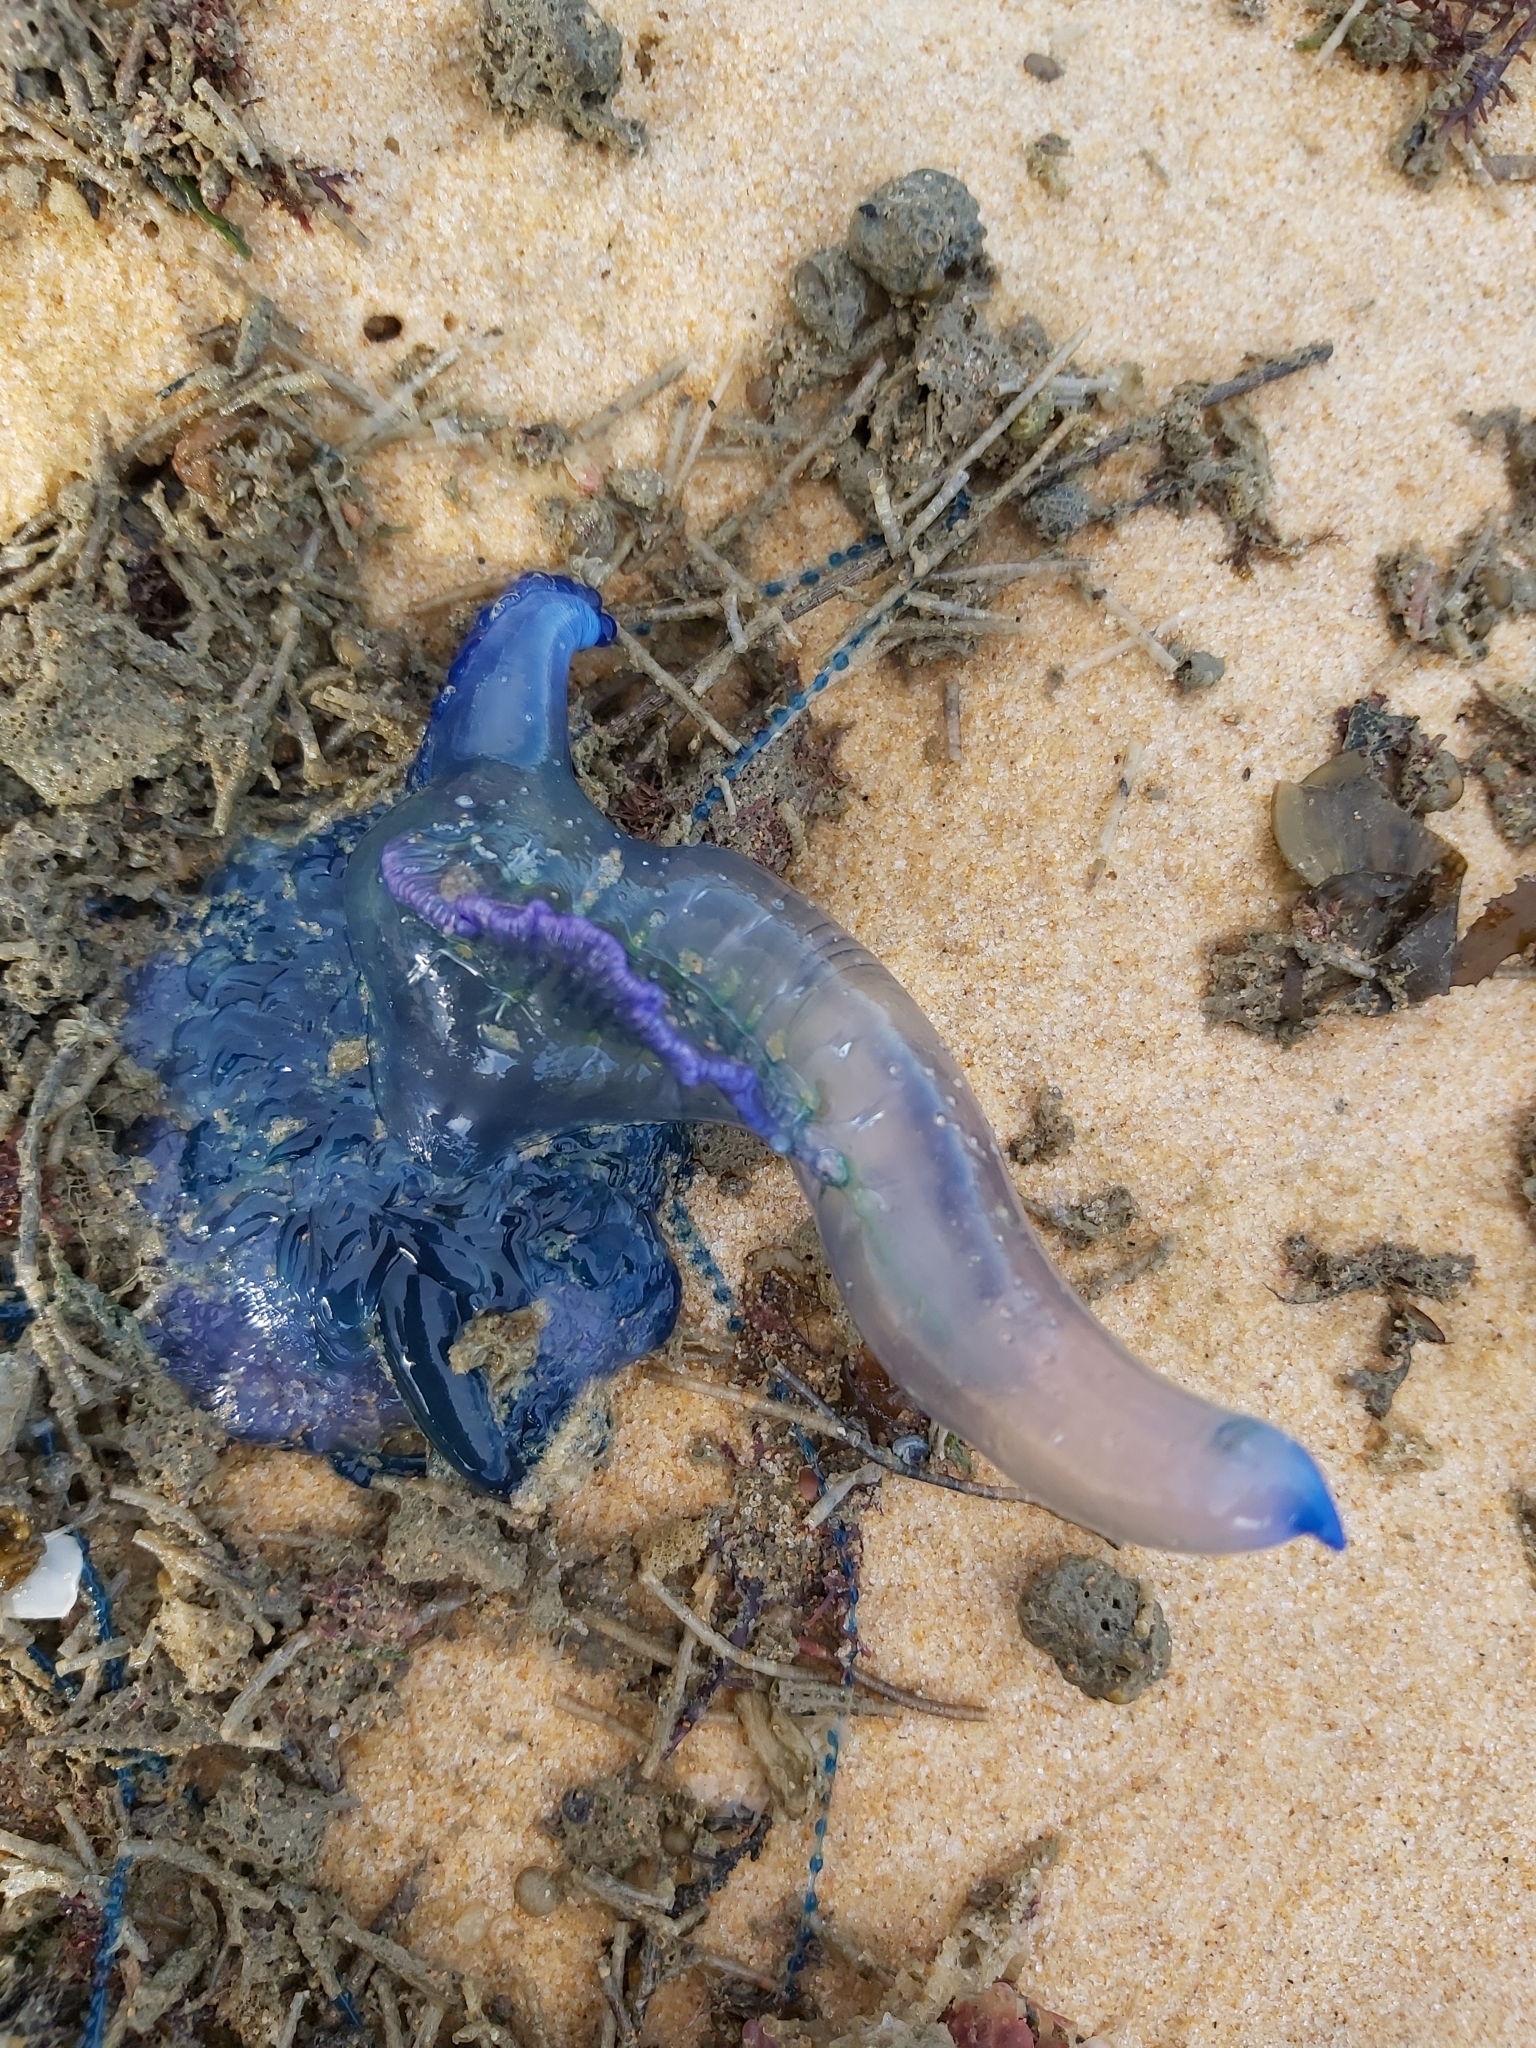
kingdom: Animalia
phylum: Cnidaria
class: Hydrozoa
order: Siphonophorae
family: Physaliidae
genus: Physalia
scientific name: Physalia physalis
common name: Portuguese man-of-war
